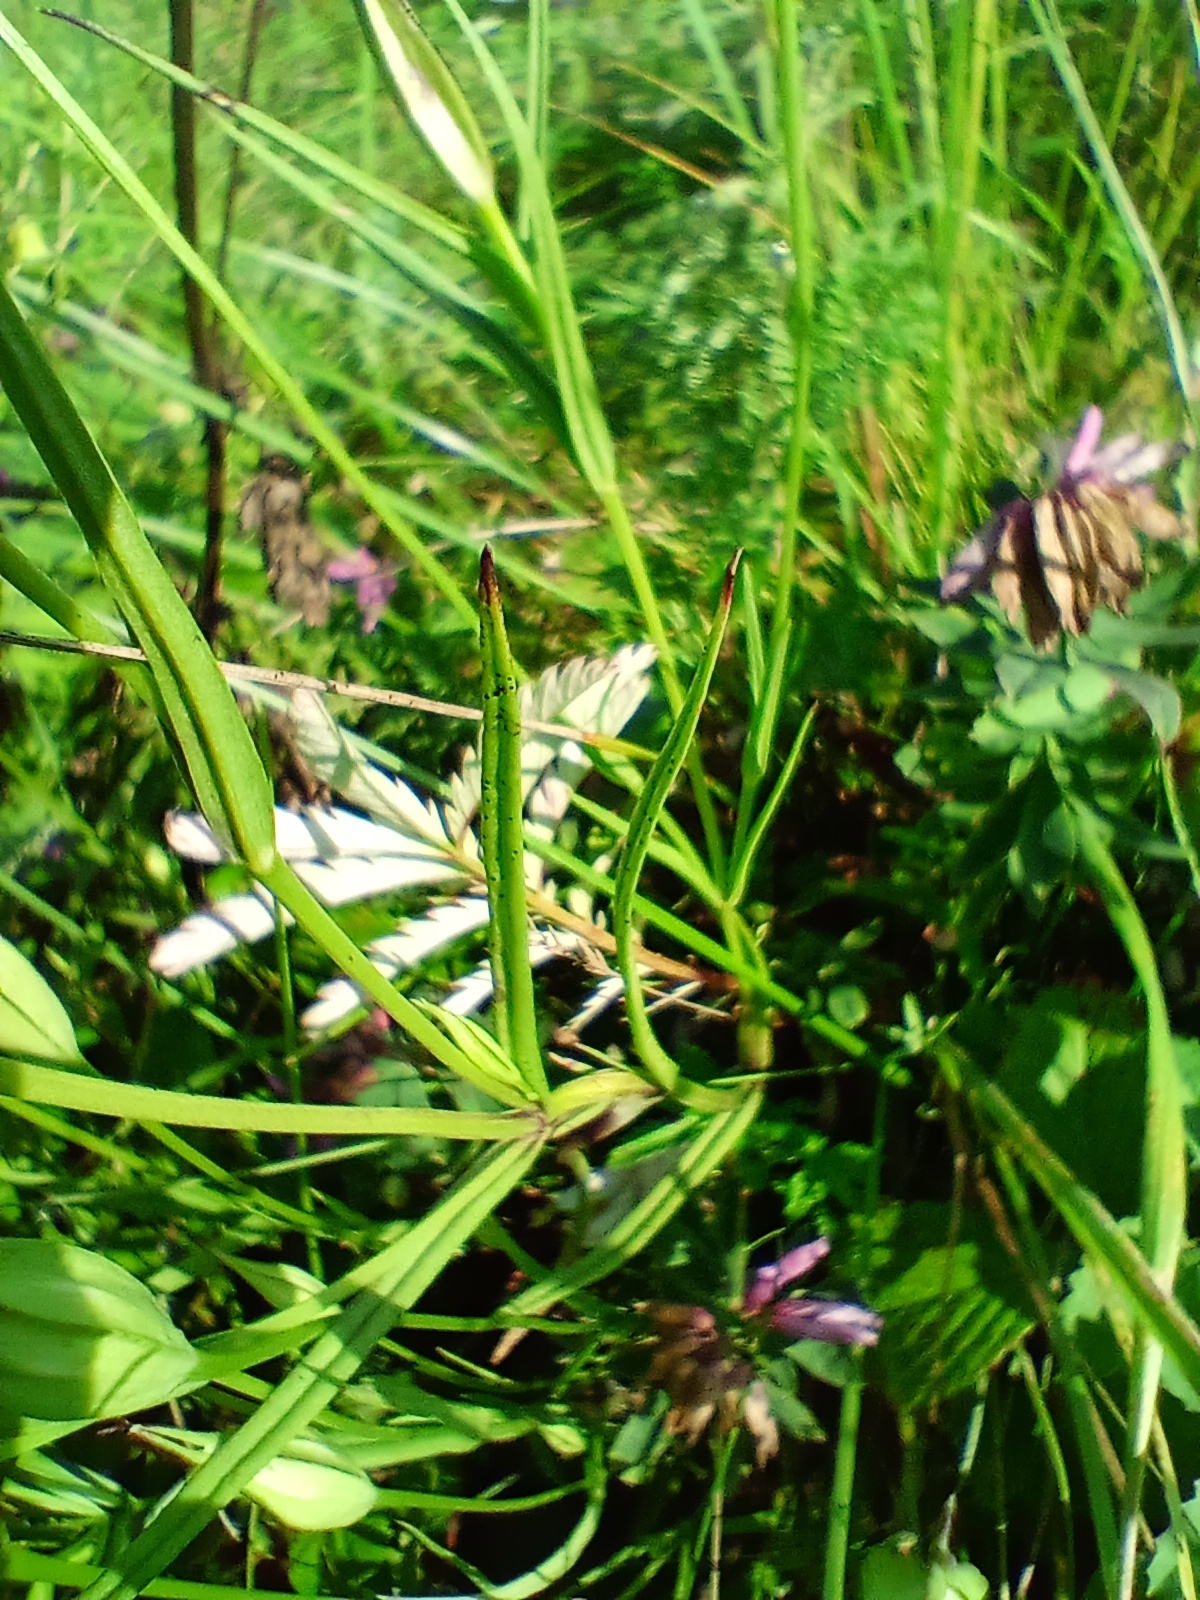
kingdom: Plantae
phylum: Tracheophyta
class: Magnoliopsida
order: Gentianales
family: Gentianaceae
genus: Gentianopsis
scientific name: Gentianopsis barbata
